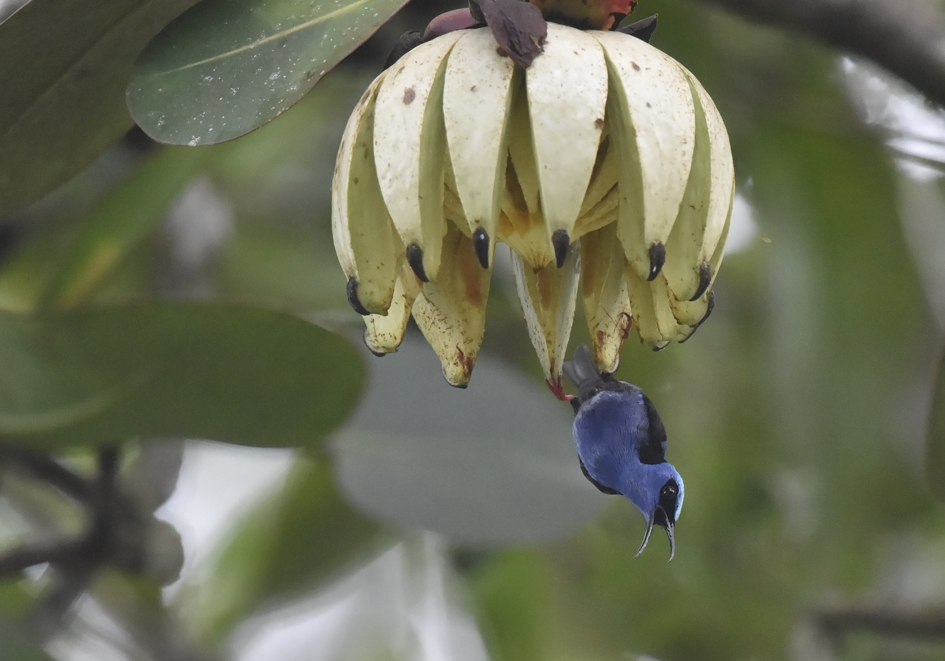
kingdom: Animalia
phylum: Chordata
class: Aves
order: Passeriformes
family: Thraupidae
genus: Cyanerpes
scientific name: Cyanerpes cyaneus
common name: Red-legged honeycreeper
